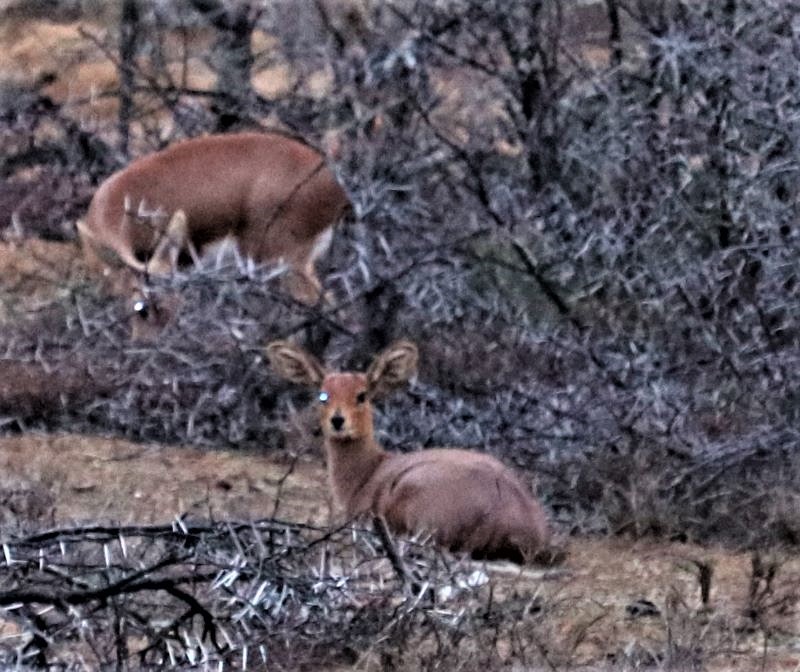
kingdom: Animalia
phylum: Chordata
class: Mammalia
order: Artiodactyla
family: Bovidae
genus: Raphicerus
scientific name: Raphicerus campestris
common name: Steenbok
